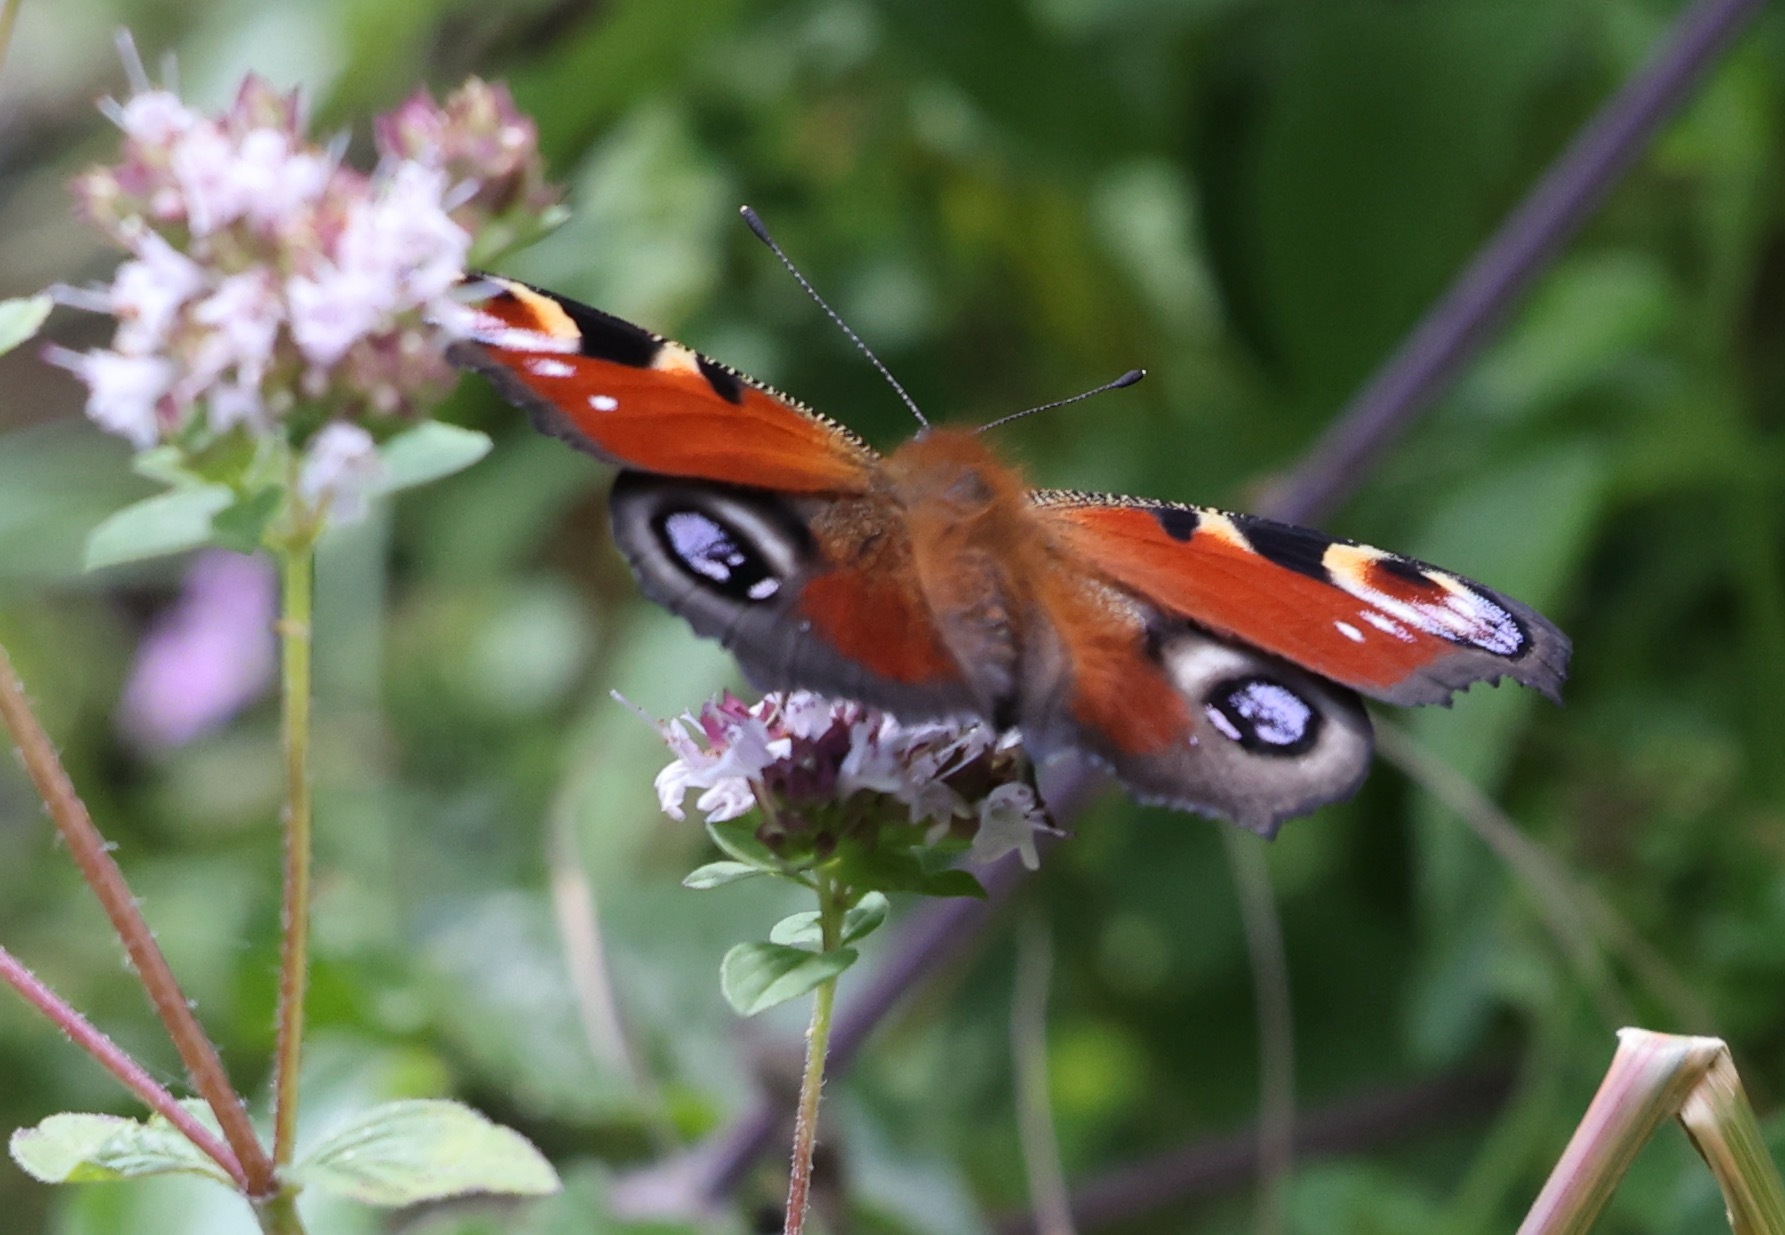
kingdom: Animalia
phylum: Arthropoda
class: Insecta
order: Lepidoptera
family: Nymphalidae
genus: Aglais
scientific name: Aglais io
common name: Peacock
